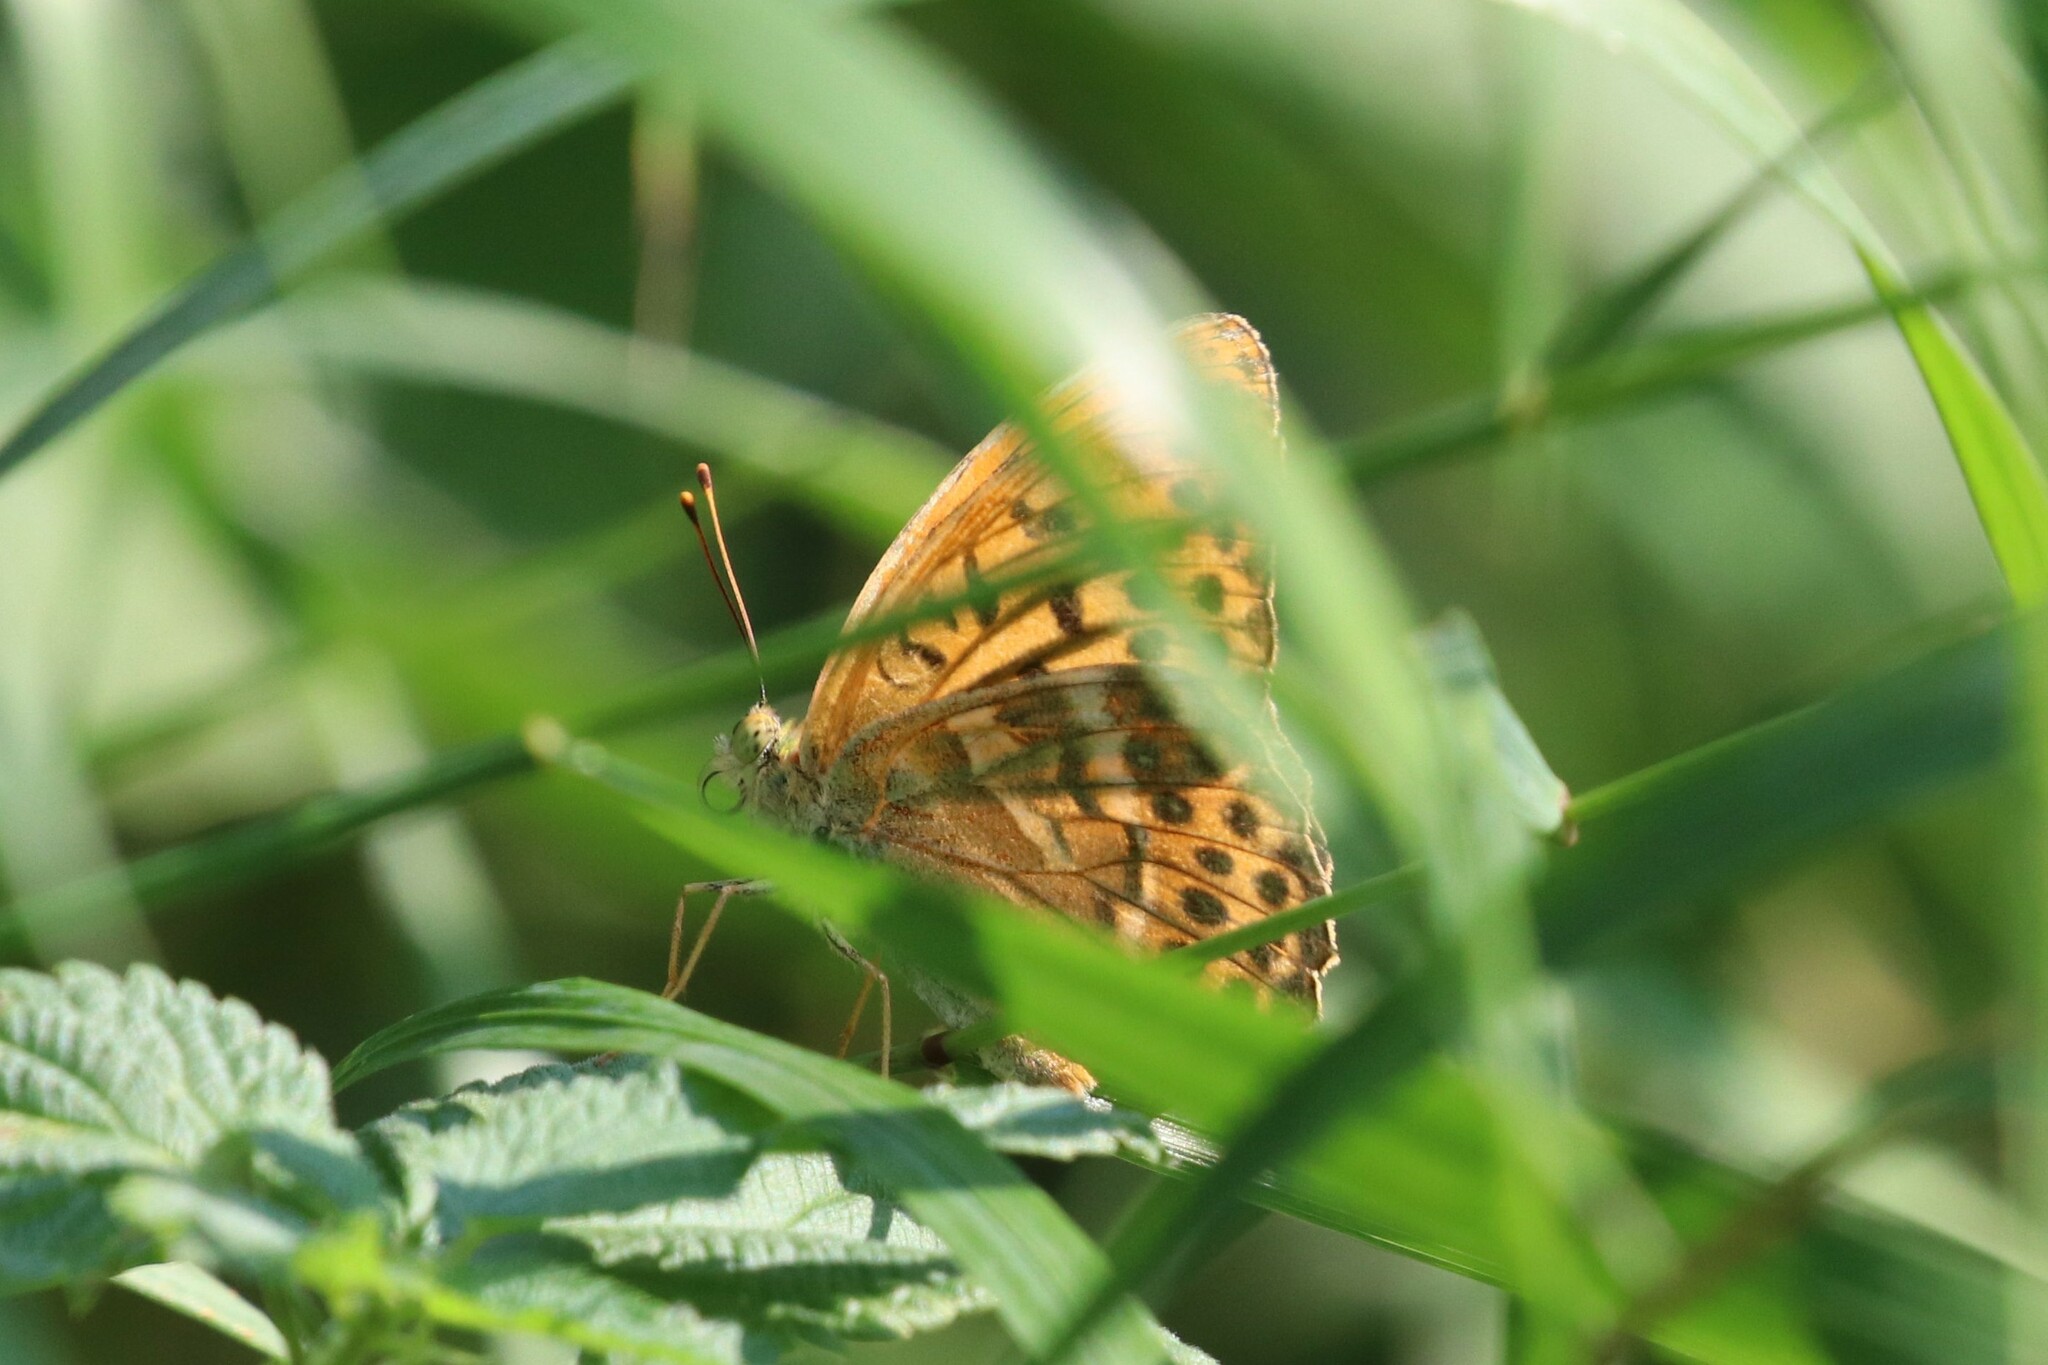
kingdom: Animalia
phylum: Arthropoda
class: Insecta
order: Lepidoptera
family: Nymphalidae
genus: Argynnis
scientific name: Argynnis paphia
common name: Silver-washed fritillary
